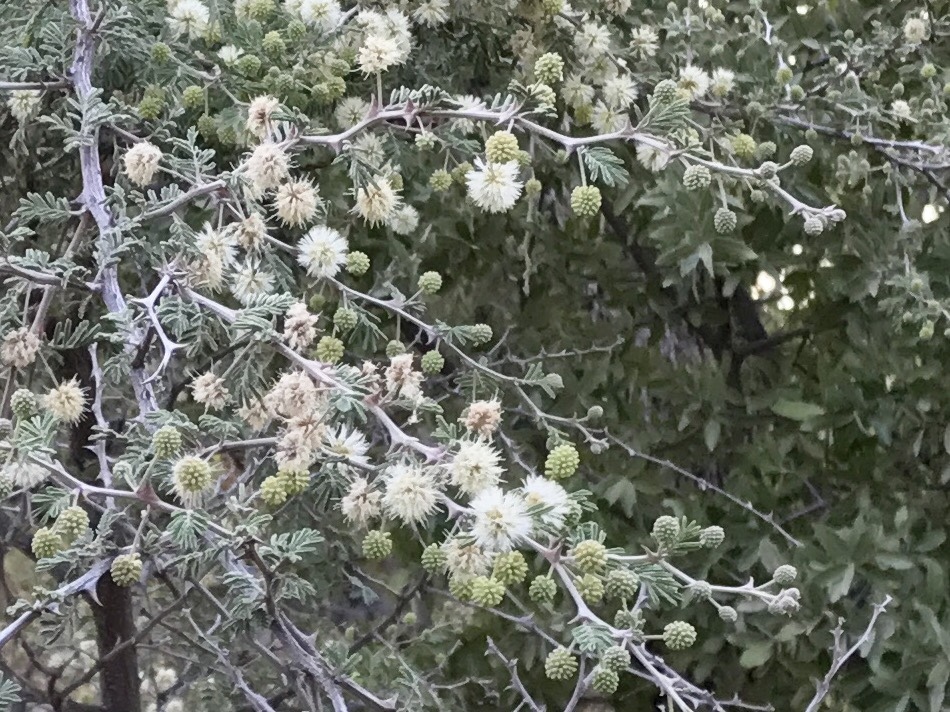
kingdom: Plantae
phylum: Tracheophyta
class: Magnoliopsida
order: Fabales
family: Fabaceae
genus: Mimosa
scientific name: Mimosa biuncifera
